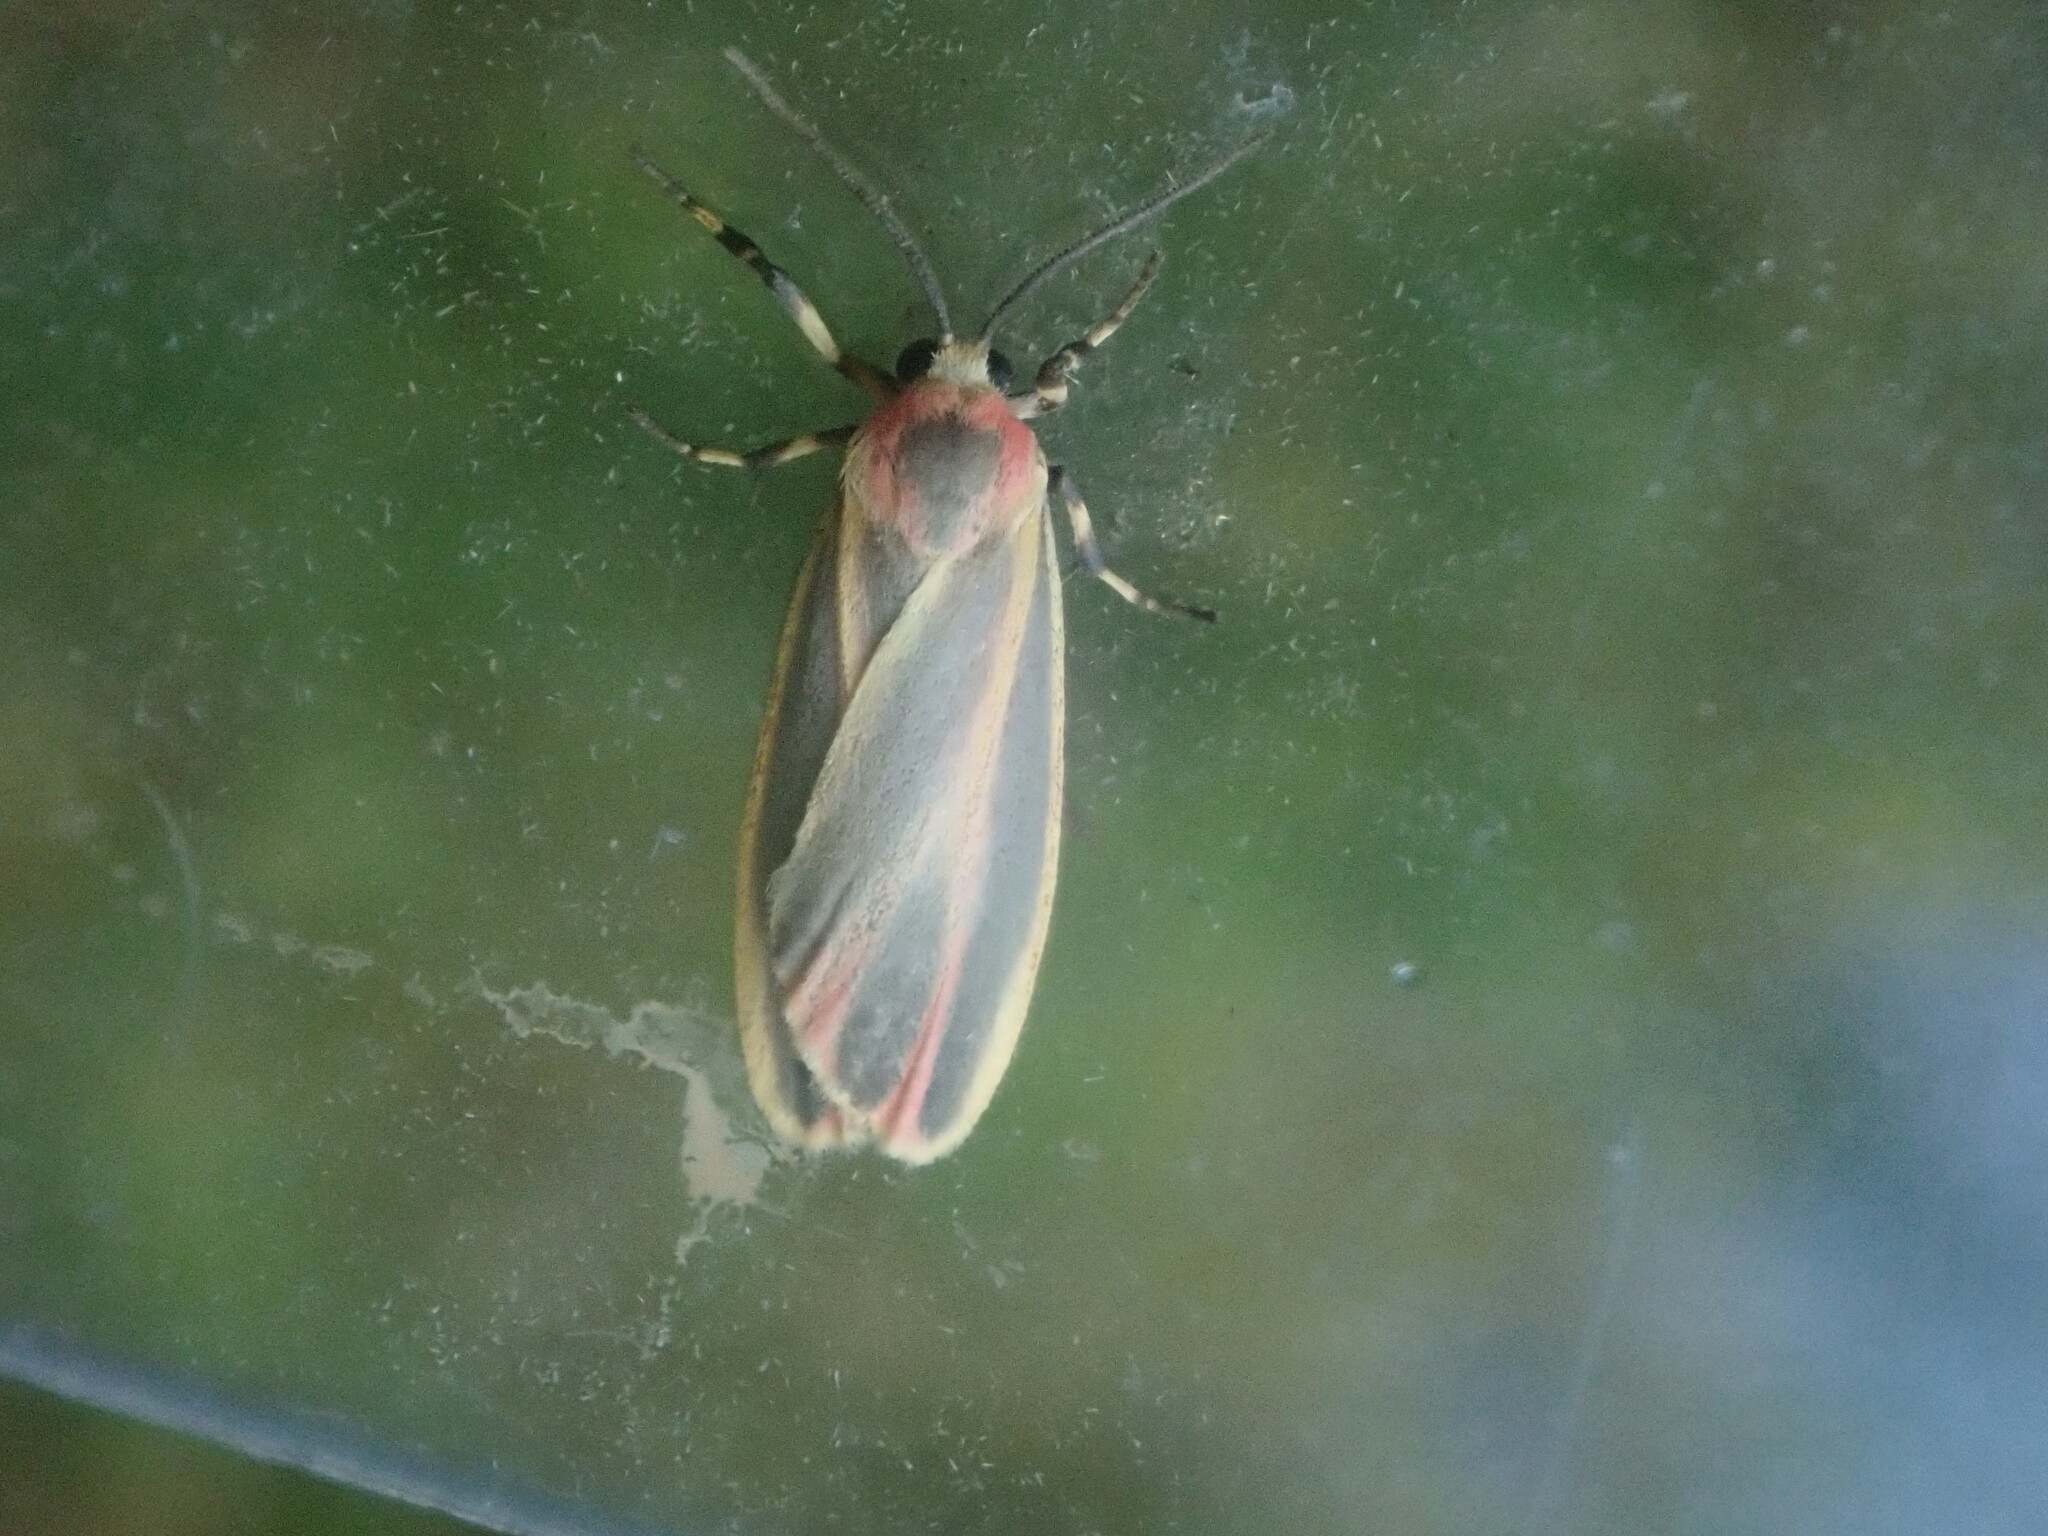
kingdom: Animalia
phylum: Arthropoda
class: Insecta
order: Lepidoptera
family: Erebidae
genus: Hypoprepia
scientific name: Hypoprepia fucosa
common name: Painted lichen moth
